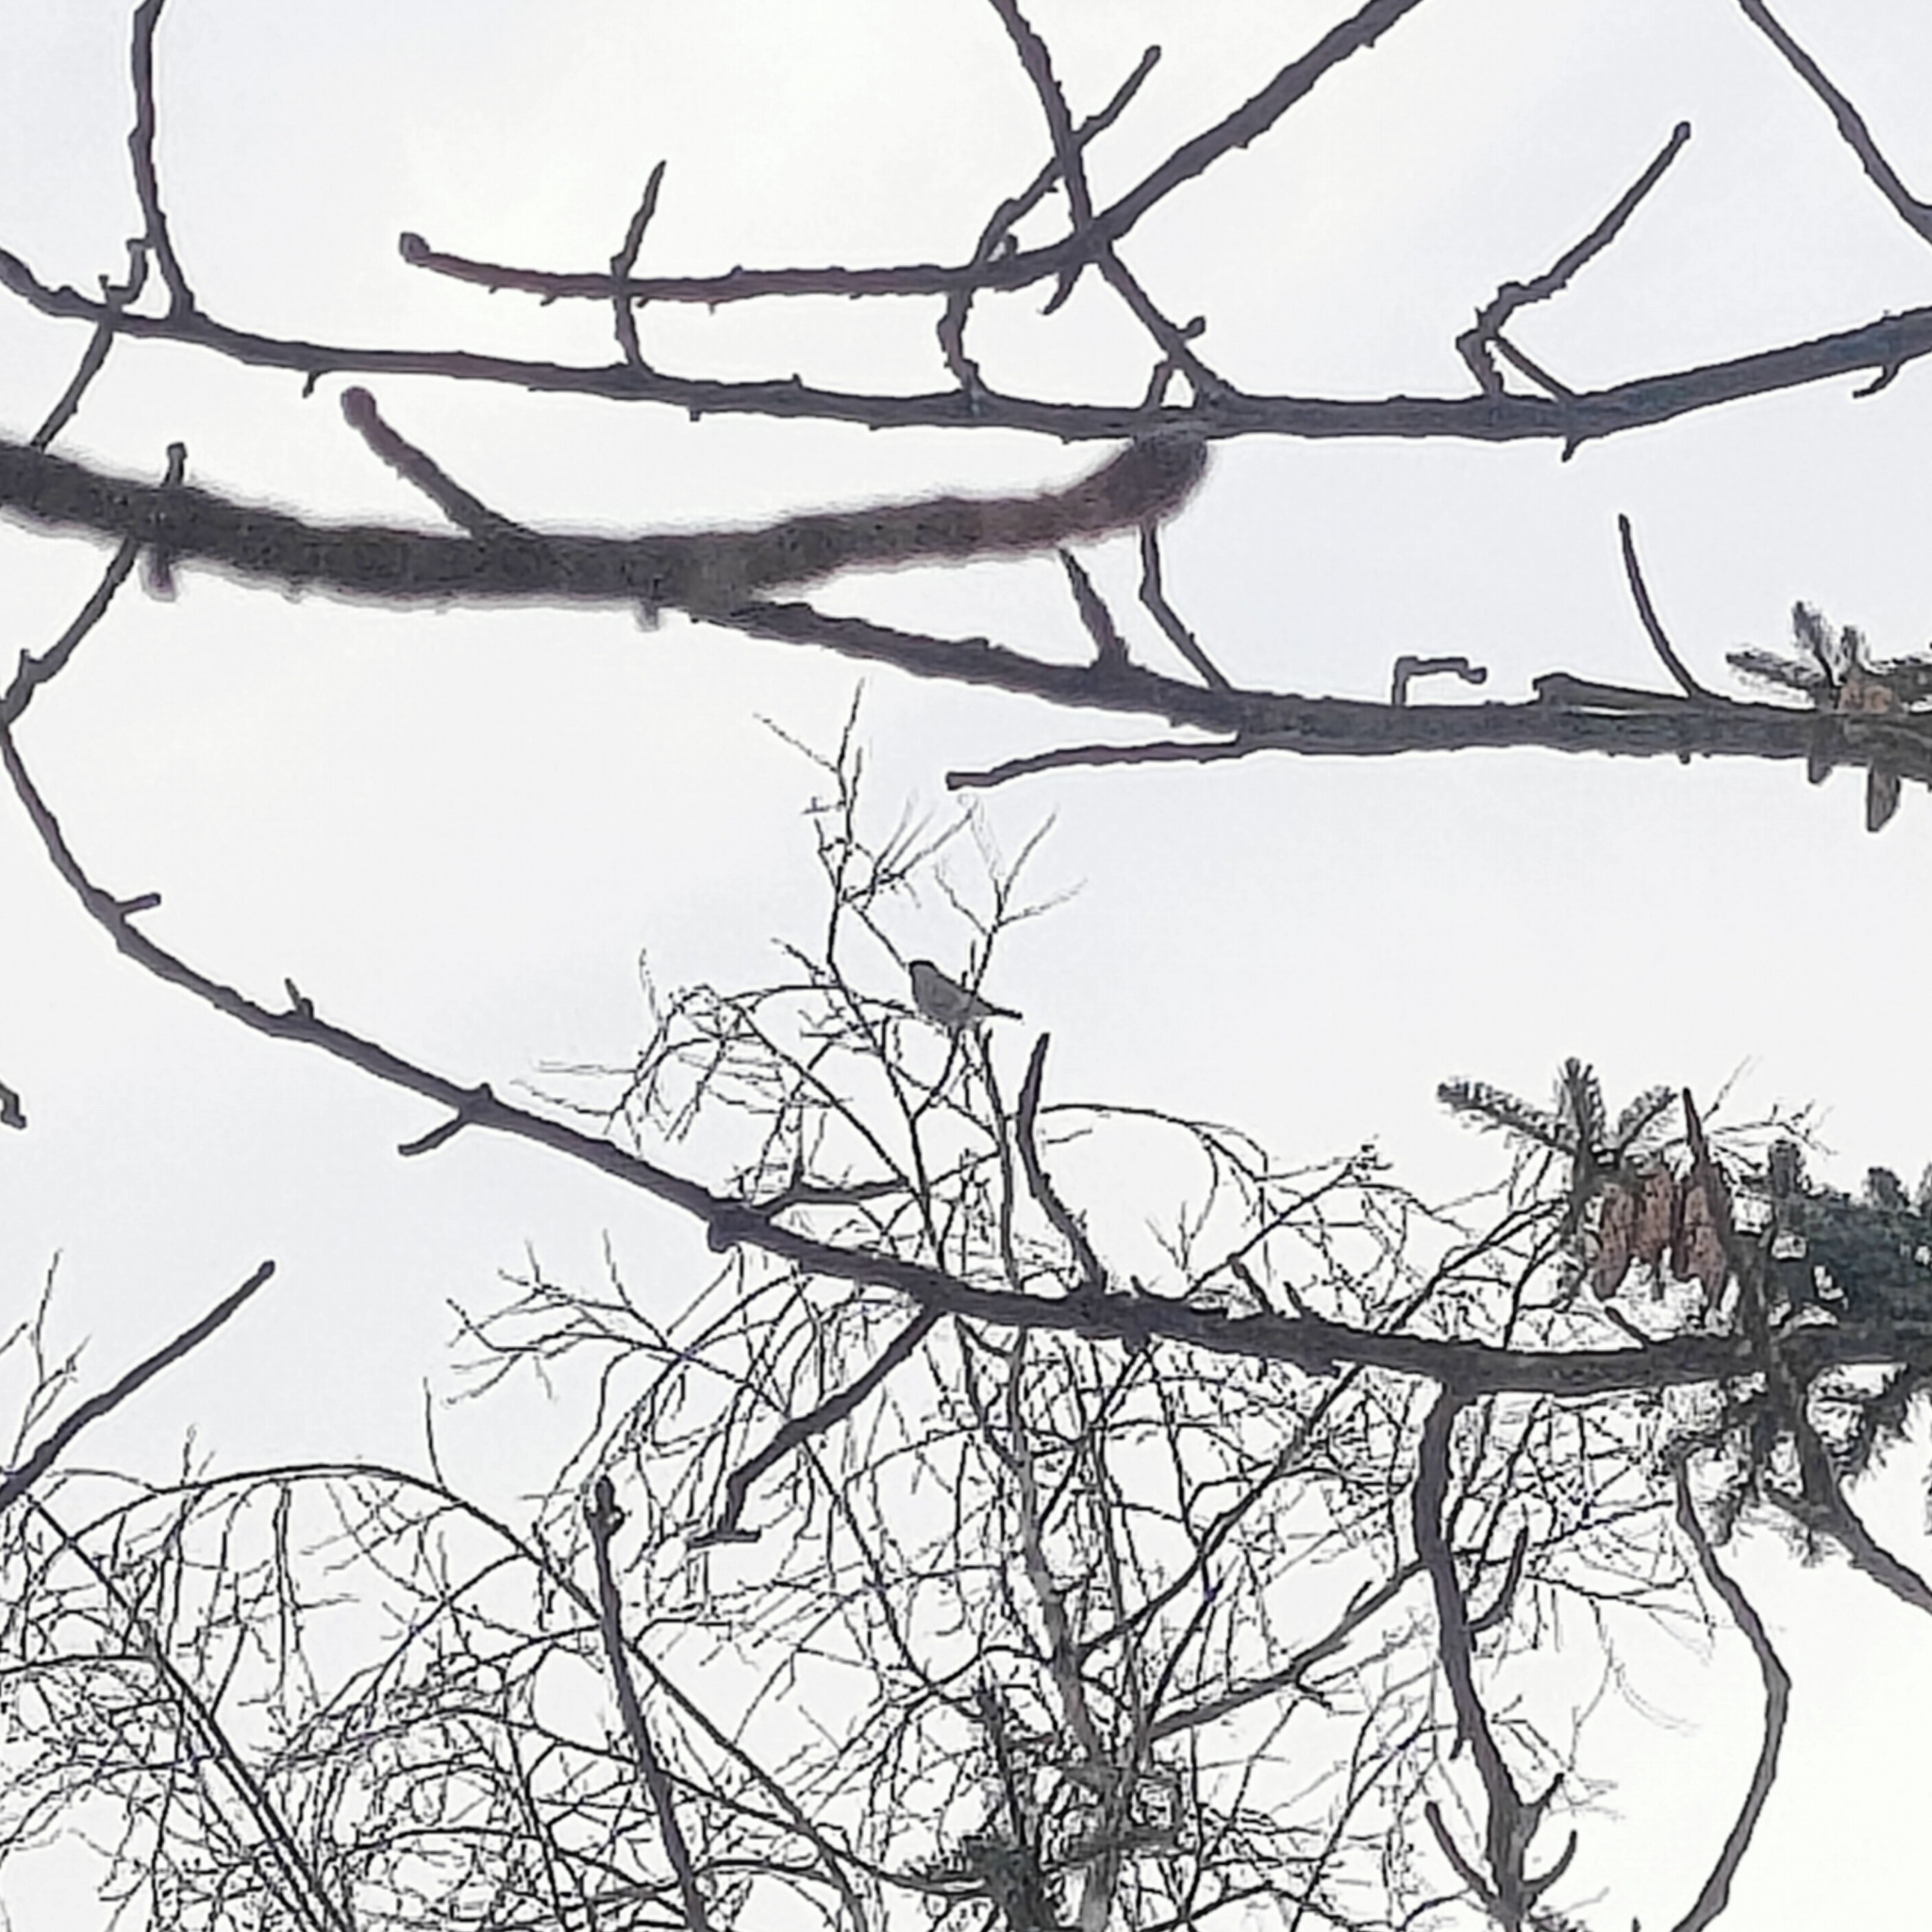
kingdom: Animalia
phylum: Chordata
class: Aves
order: Passeriformes
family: Fringillidae
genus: Pyrrhula
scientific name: Pyrrhula pyrrhula
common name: Eurasian bullfinch
